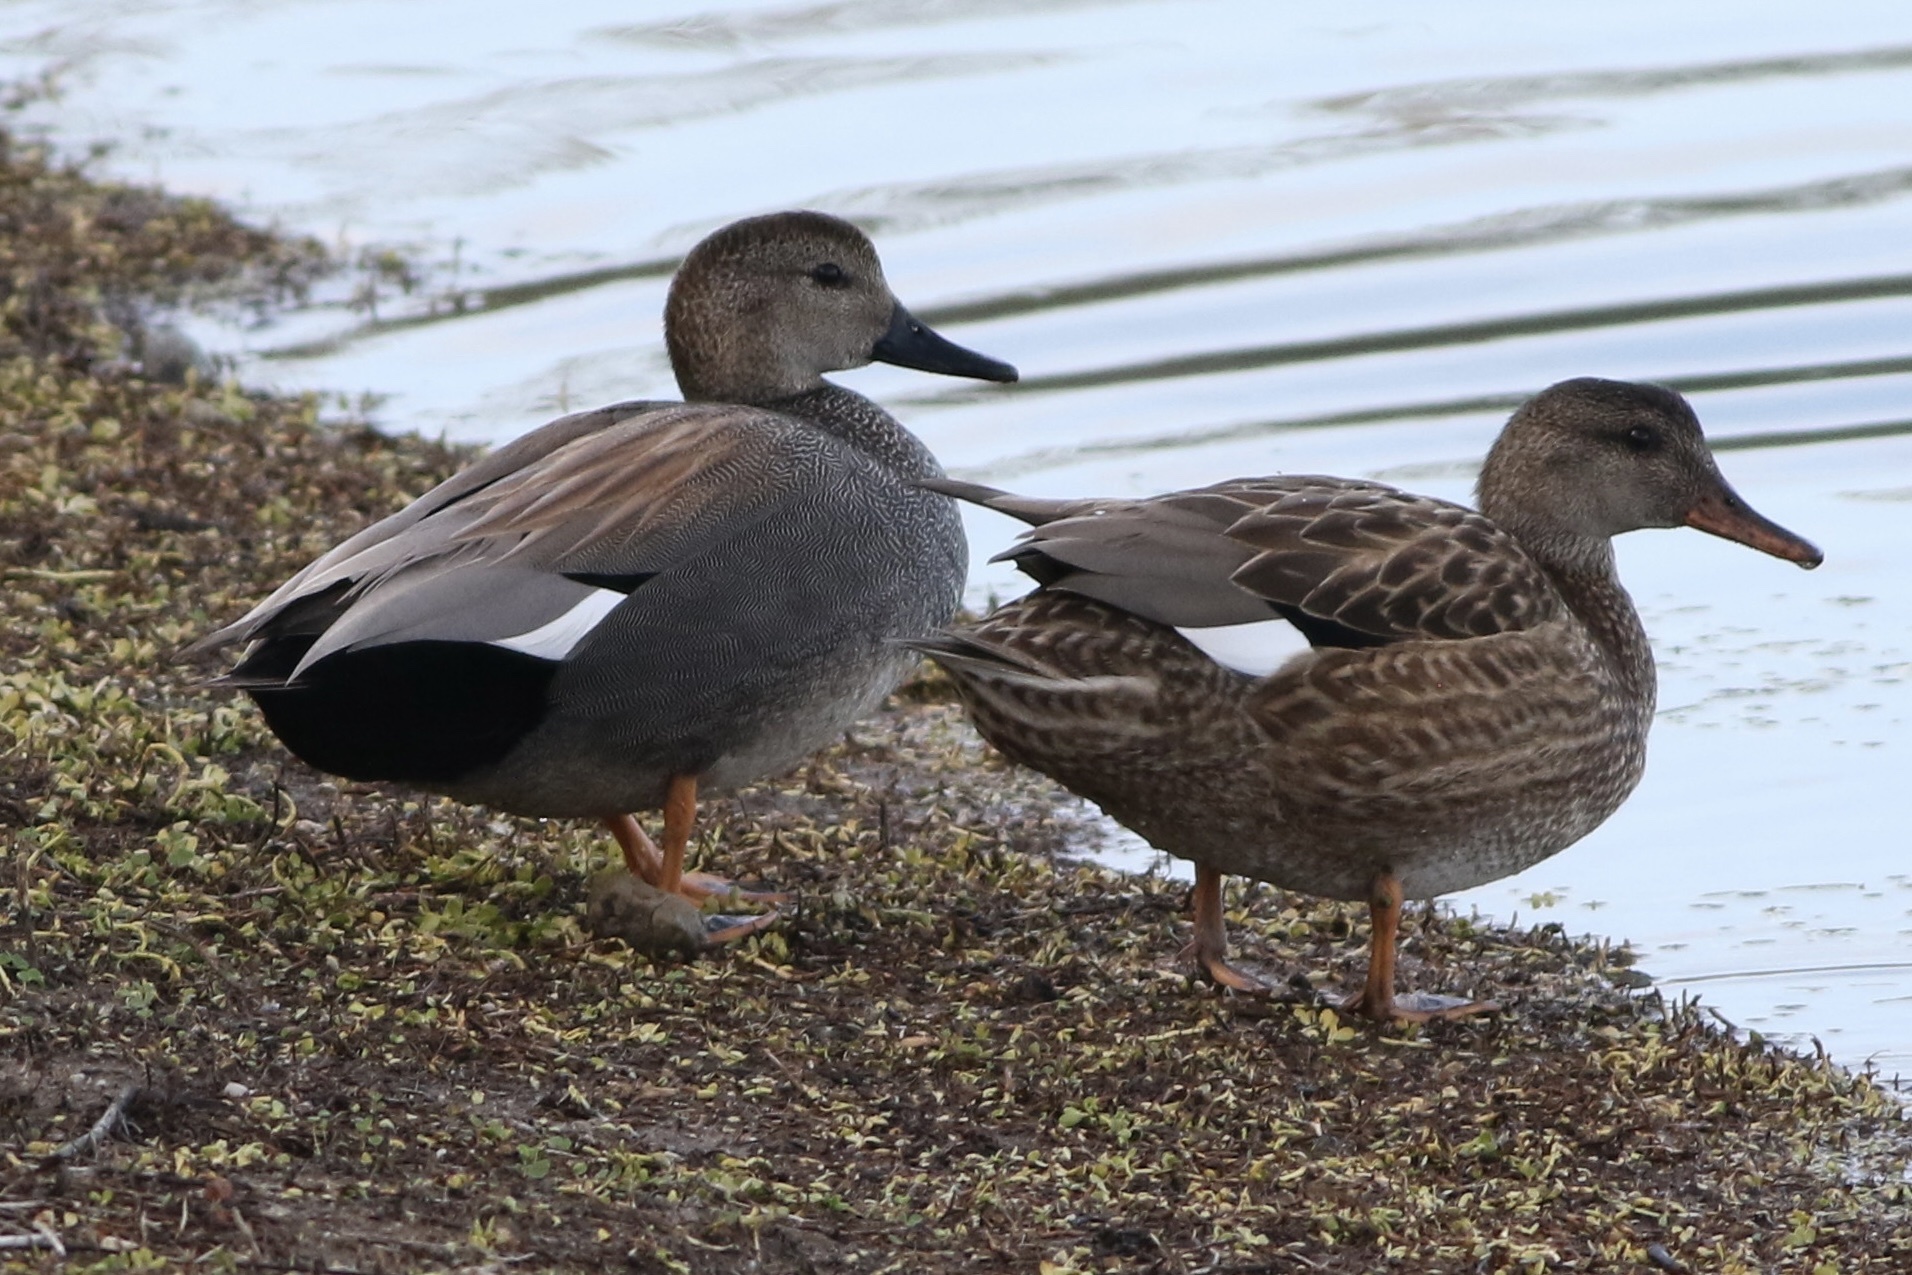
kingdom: Animalia
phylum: Chordata
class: Aves
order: Anseriformes
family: Anatidae
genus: Mareca
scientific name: Mareca strepera
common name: Gadwall
